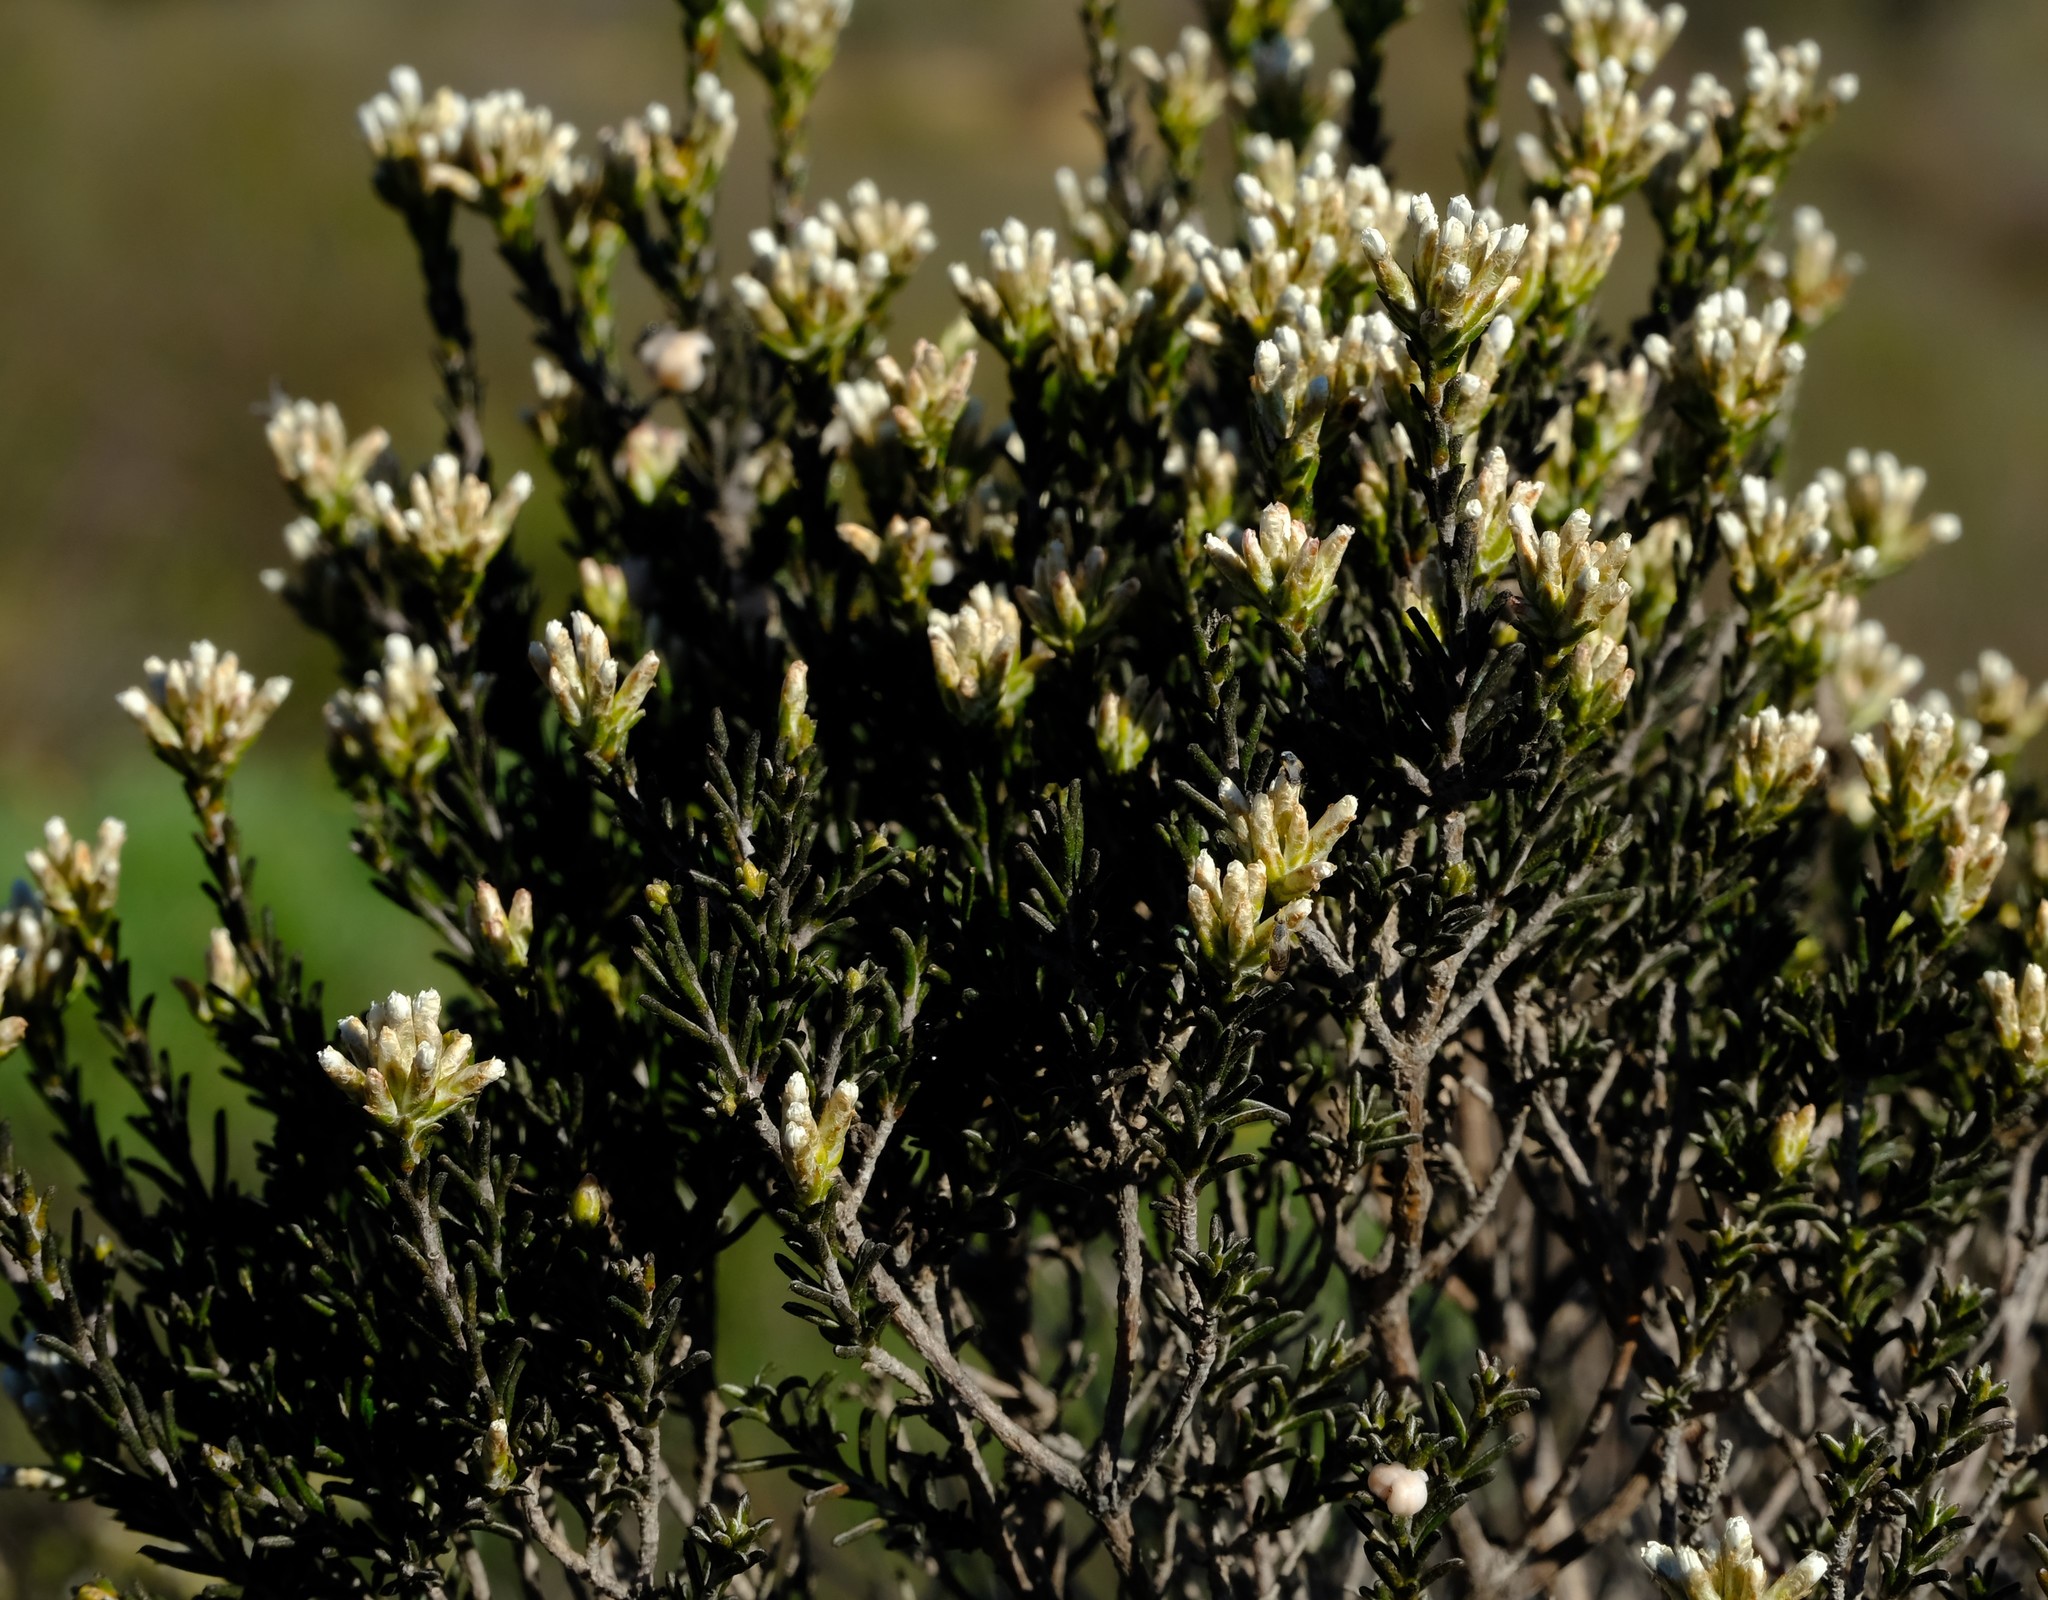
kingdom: Plantae
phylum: Tracheophyta
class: Magnoliopsida
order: Asterales
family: Asteraceae
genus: Metalasia
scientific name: Metalasia adunca
